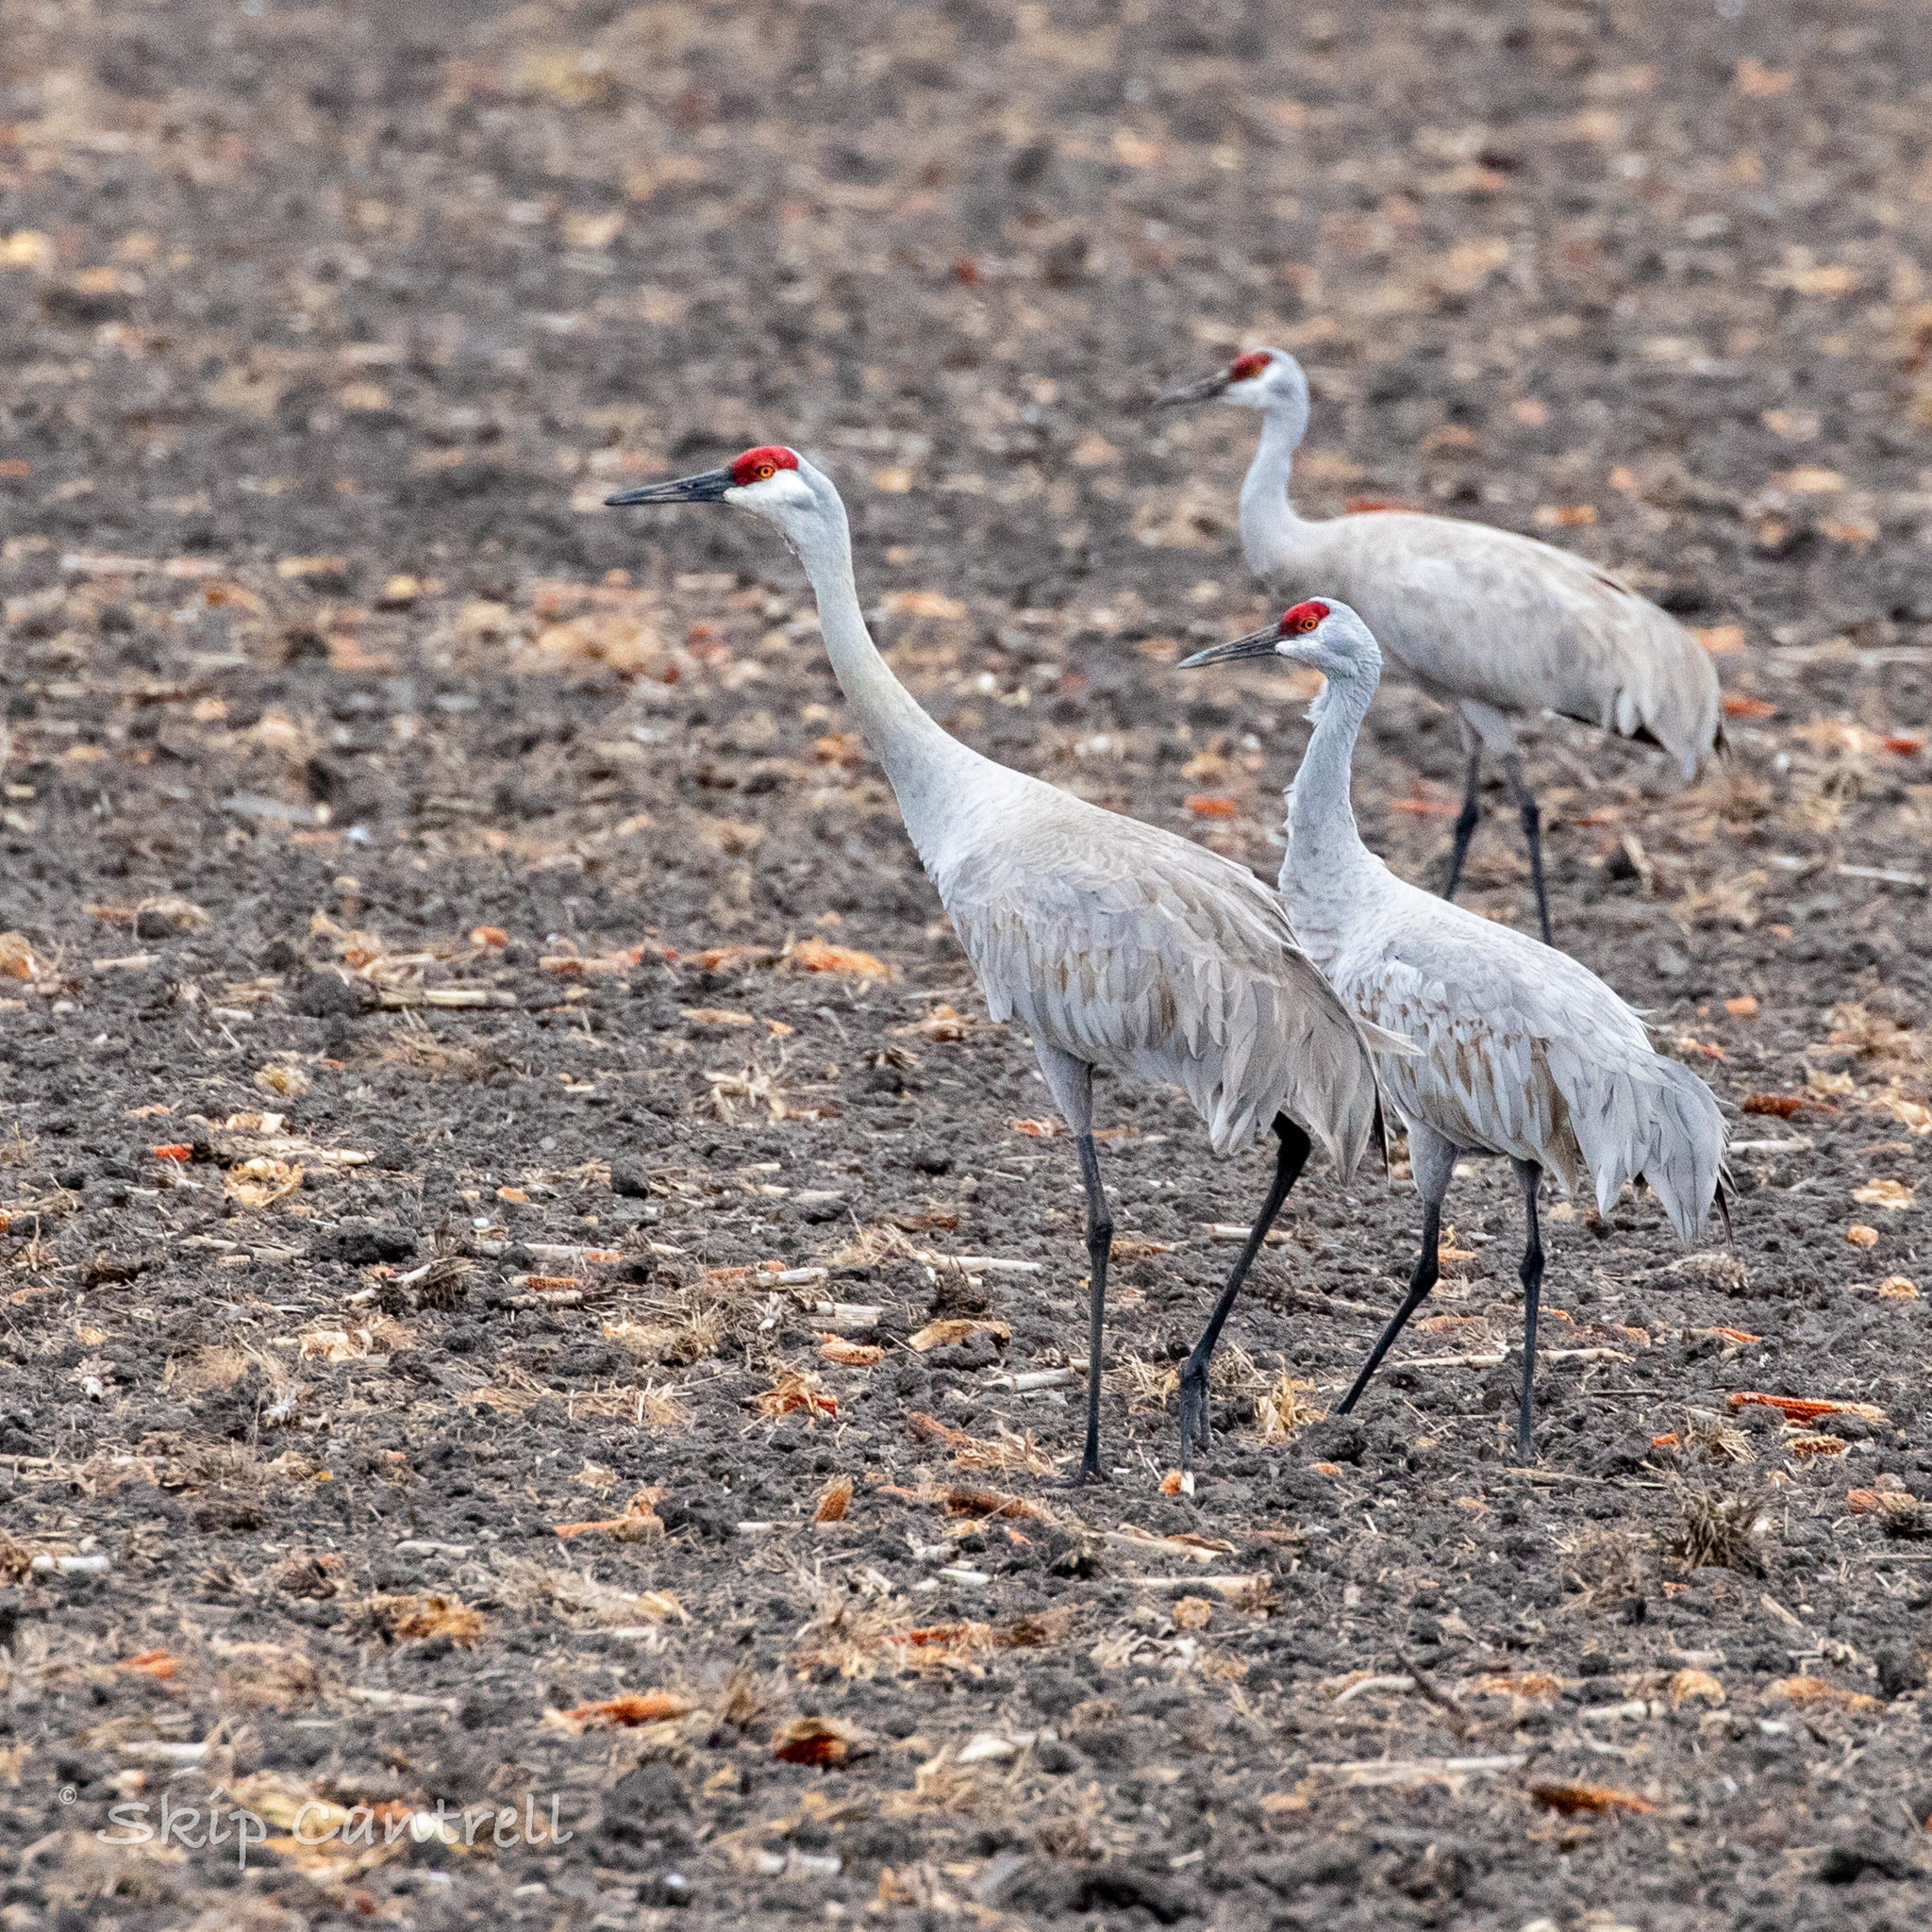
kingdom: Animalia
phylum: Chordata
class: Aves
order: Gruiformes
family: Gruidae
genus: Grus
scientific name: Grus canadensis
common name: Sandhill crane
